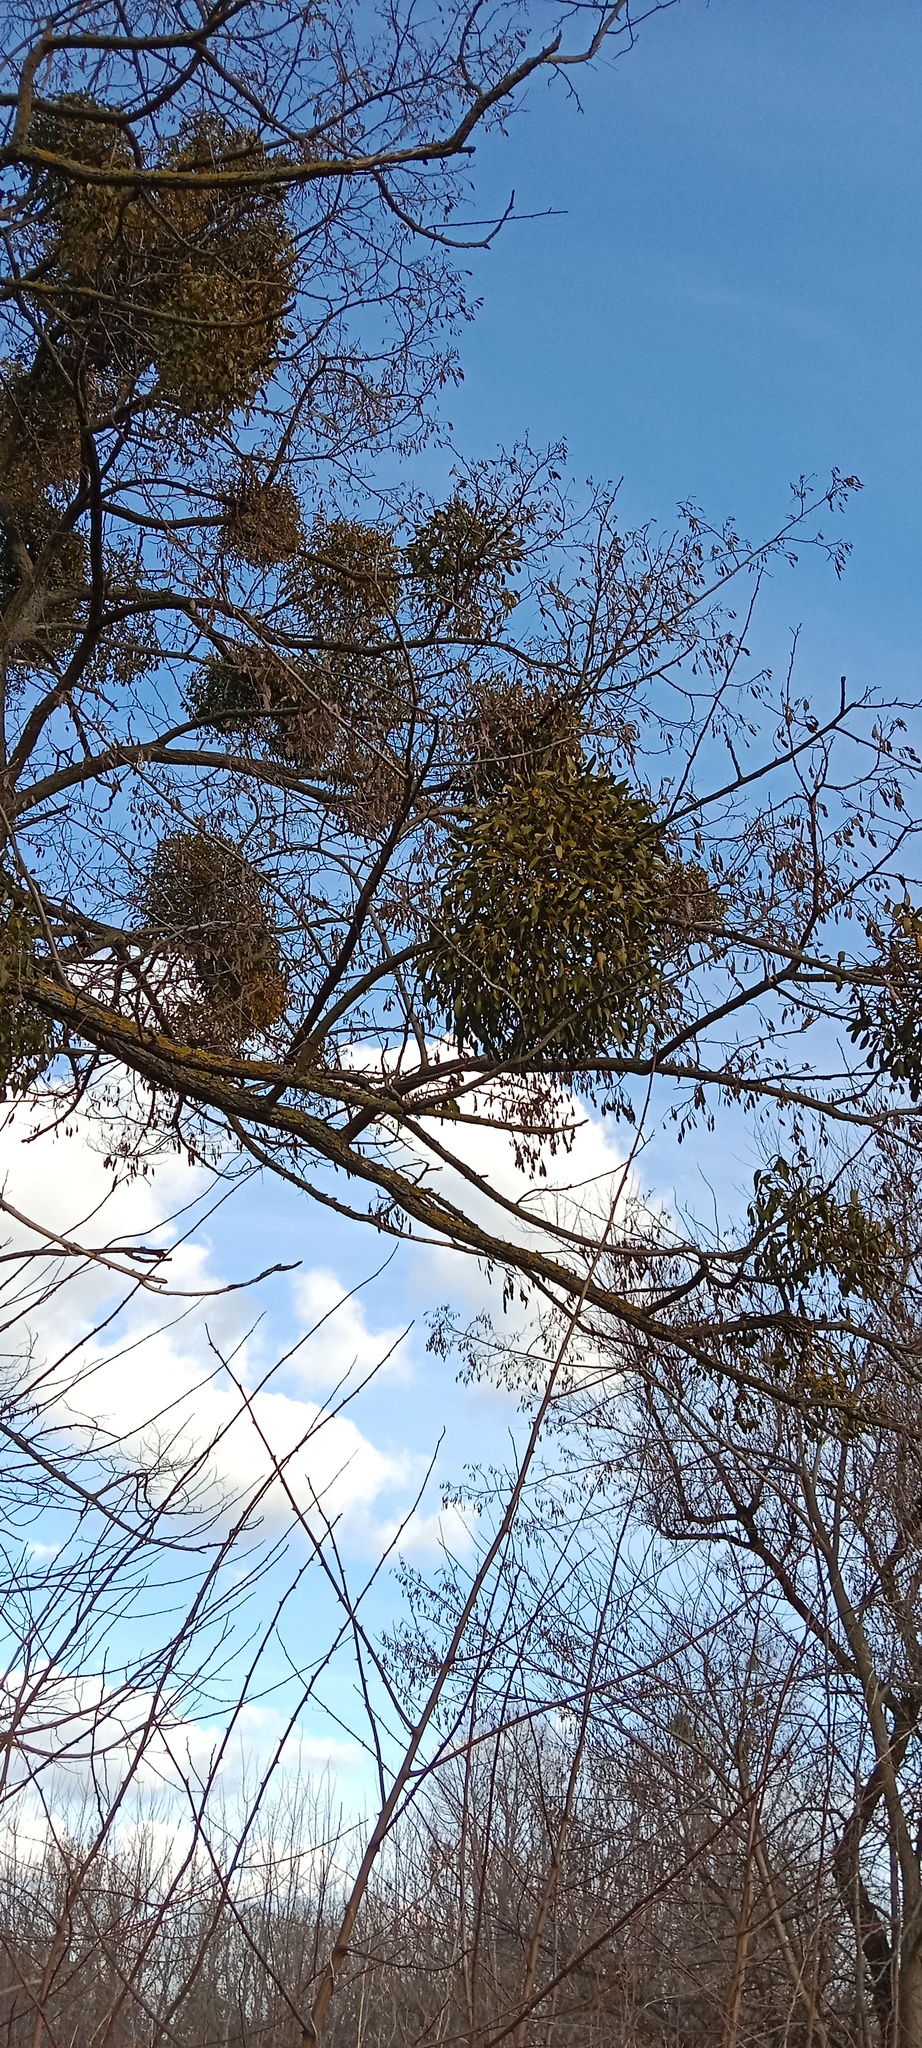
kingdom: Plantae
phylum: Tracheophyta
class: Magnoliopsida
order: Santalales
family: Viscaceae
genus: Viscum
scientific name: Viscum album
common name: Mistletoe
